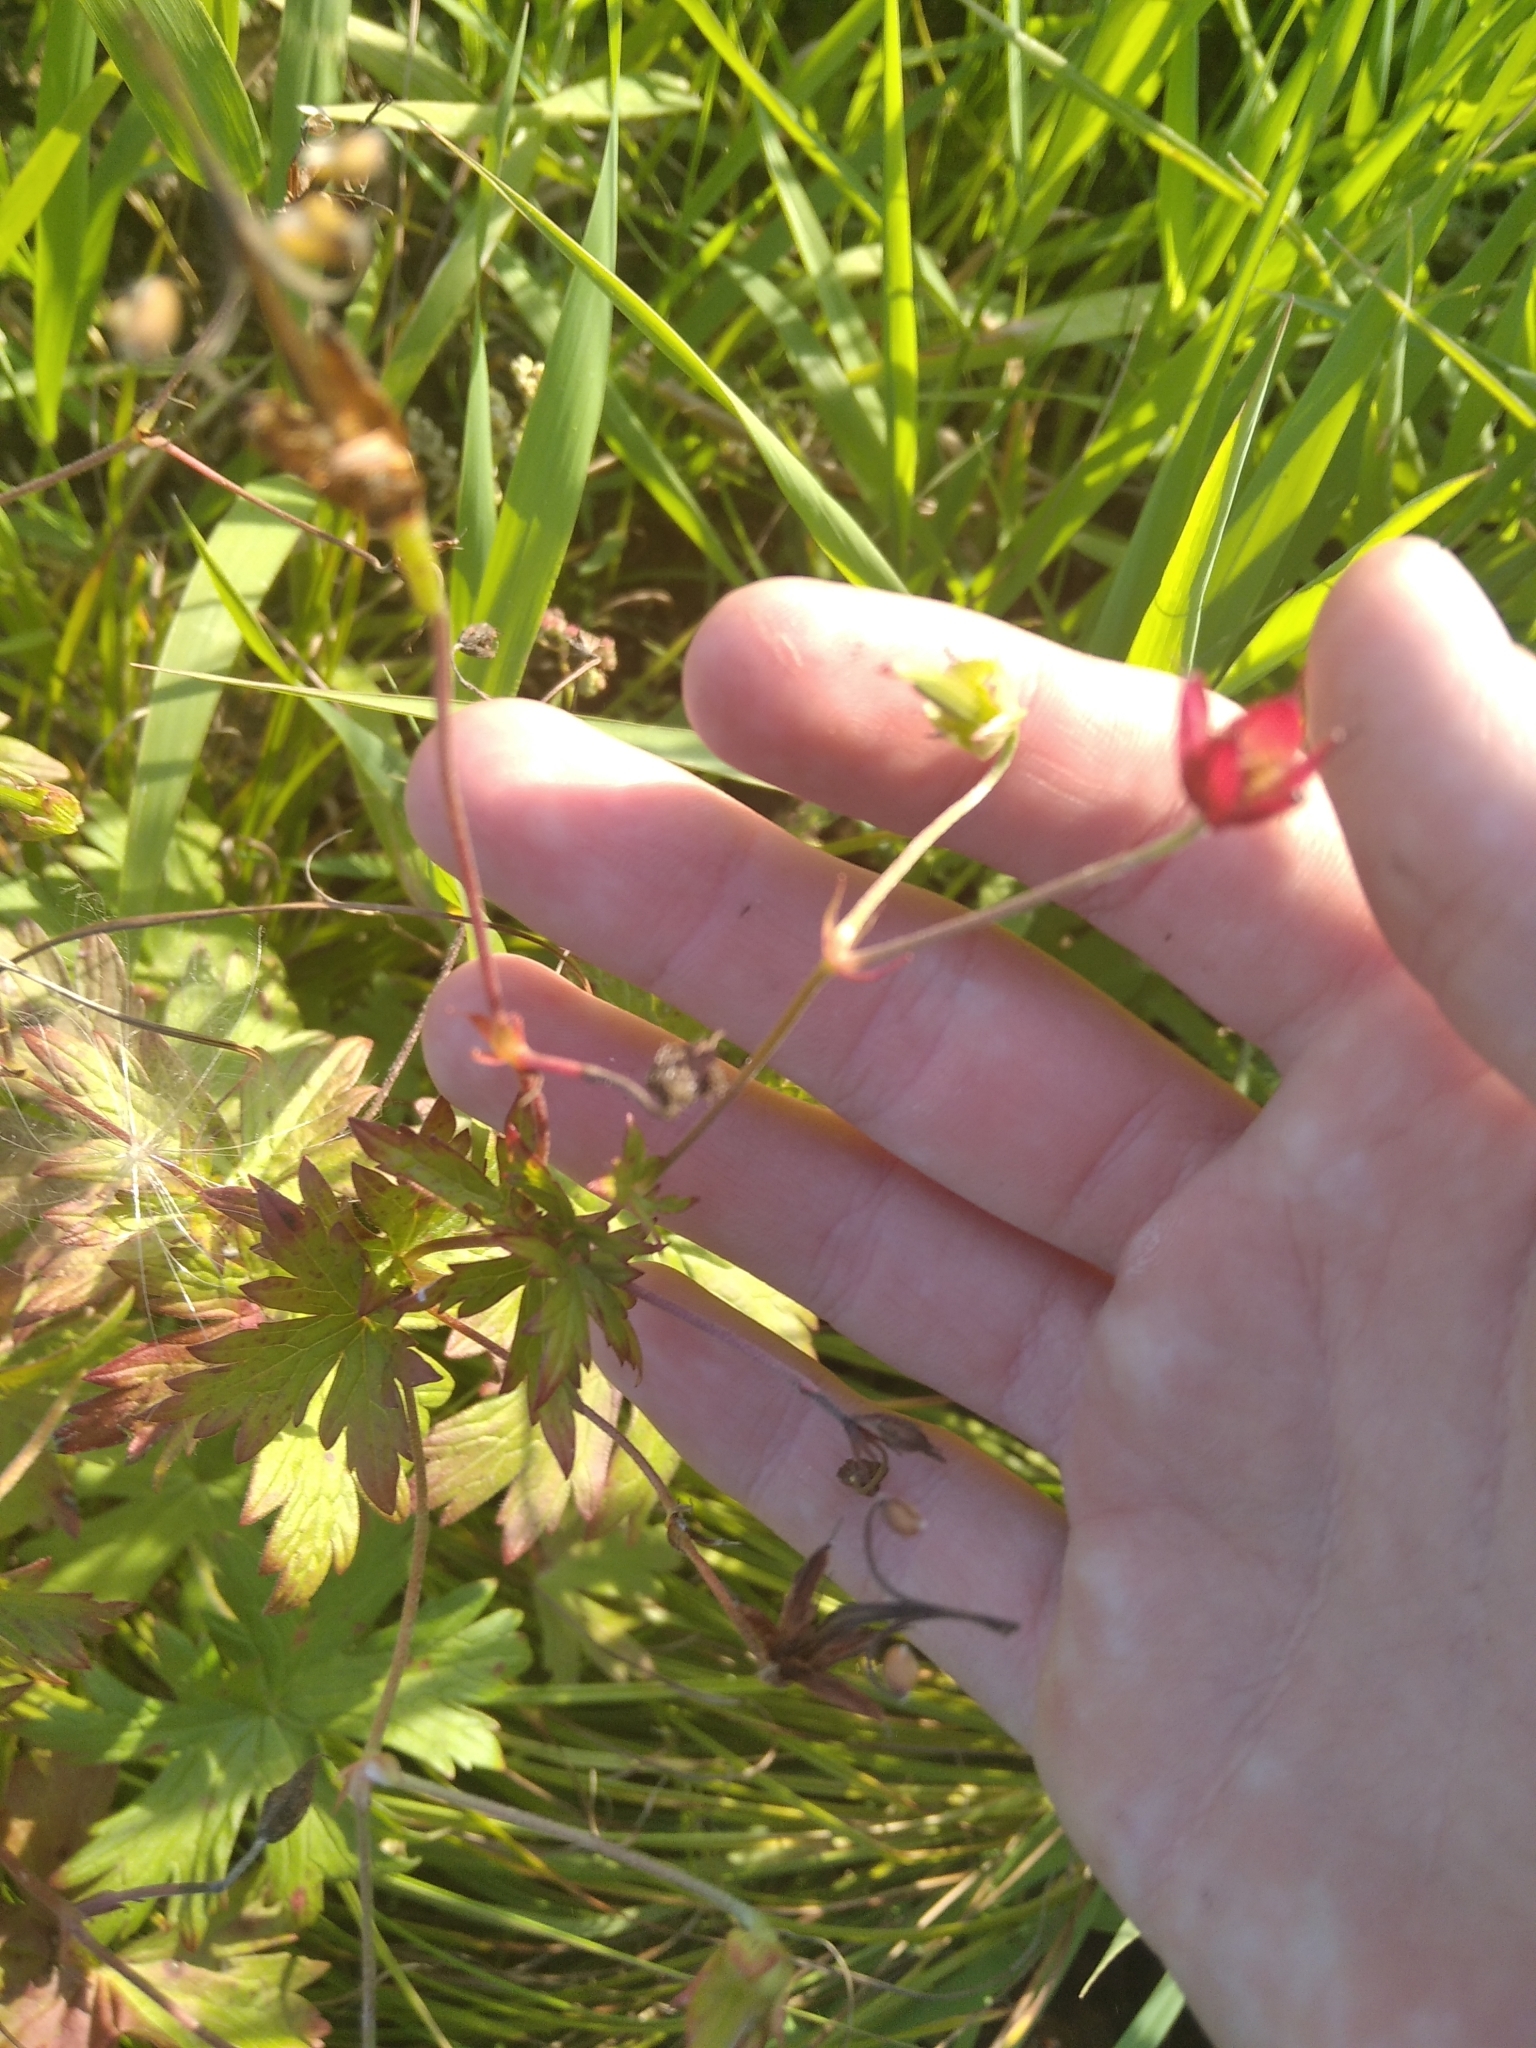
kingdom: Plantae
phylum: Tracheophyta
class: Magnoliopsida
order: Geraniales
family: Geraniaceae
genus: Geranium
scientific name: Geranium sibiricum
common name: Siberian crane's-bill
